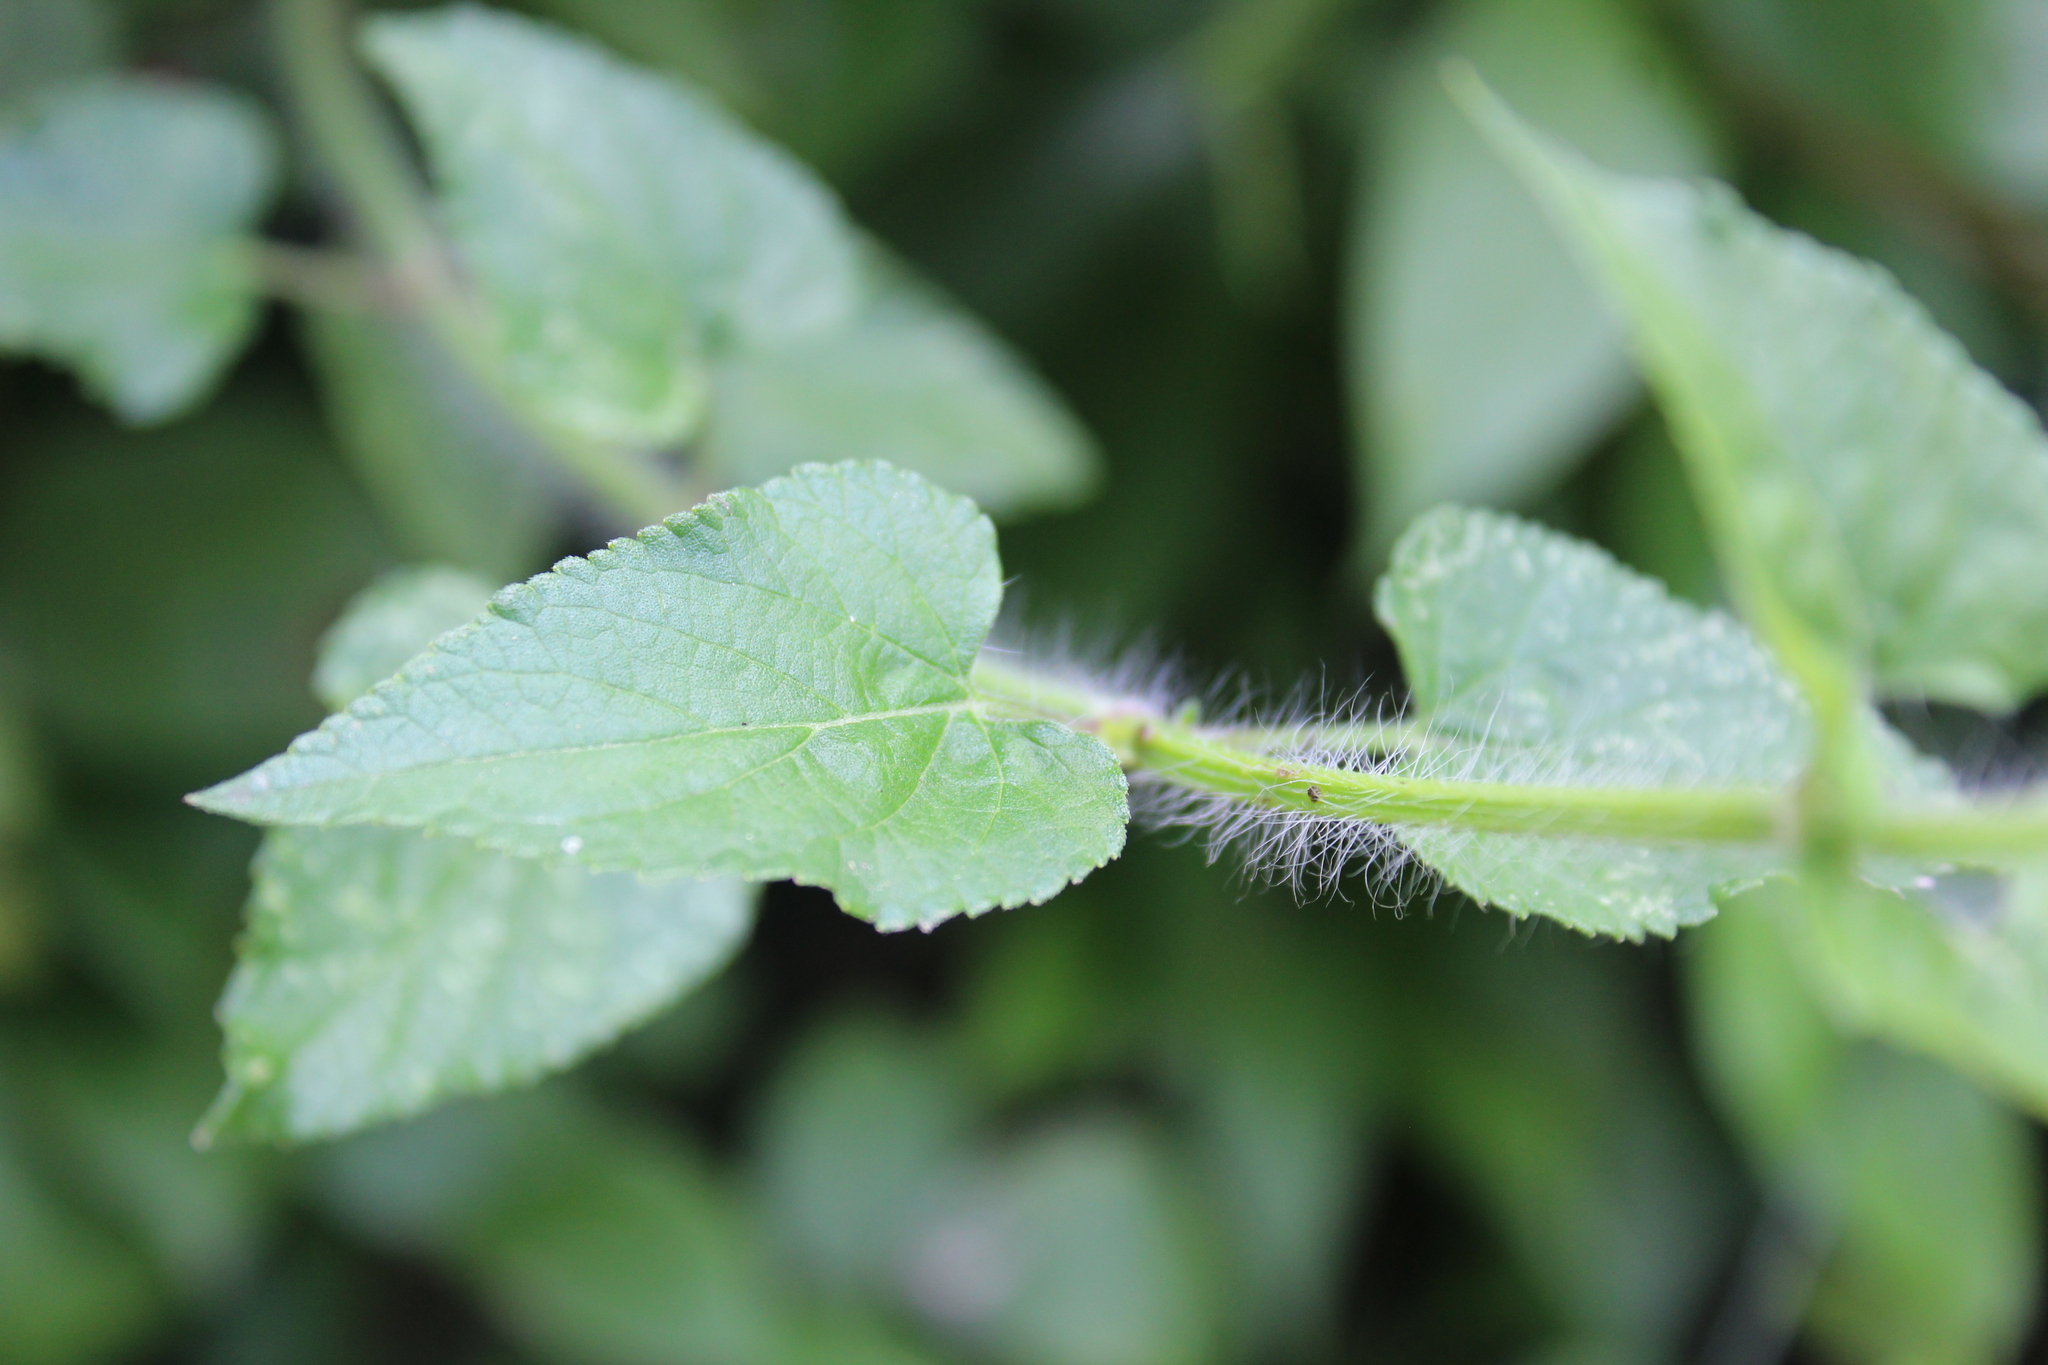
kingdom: Plantae
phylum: Tracheophyta
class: Magnoliopsida
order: Lamiales
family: Lamiaceae
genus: Salvia
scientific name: Salvia coccinea
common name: Blood sage
